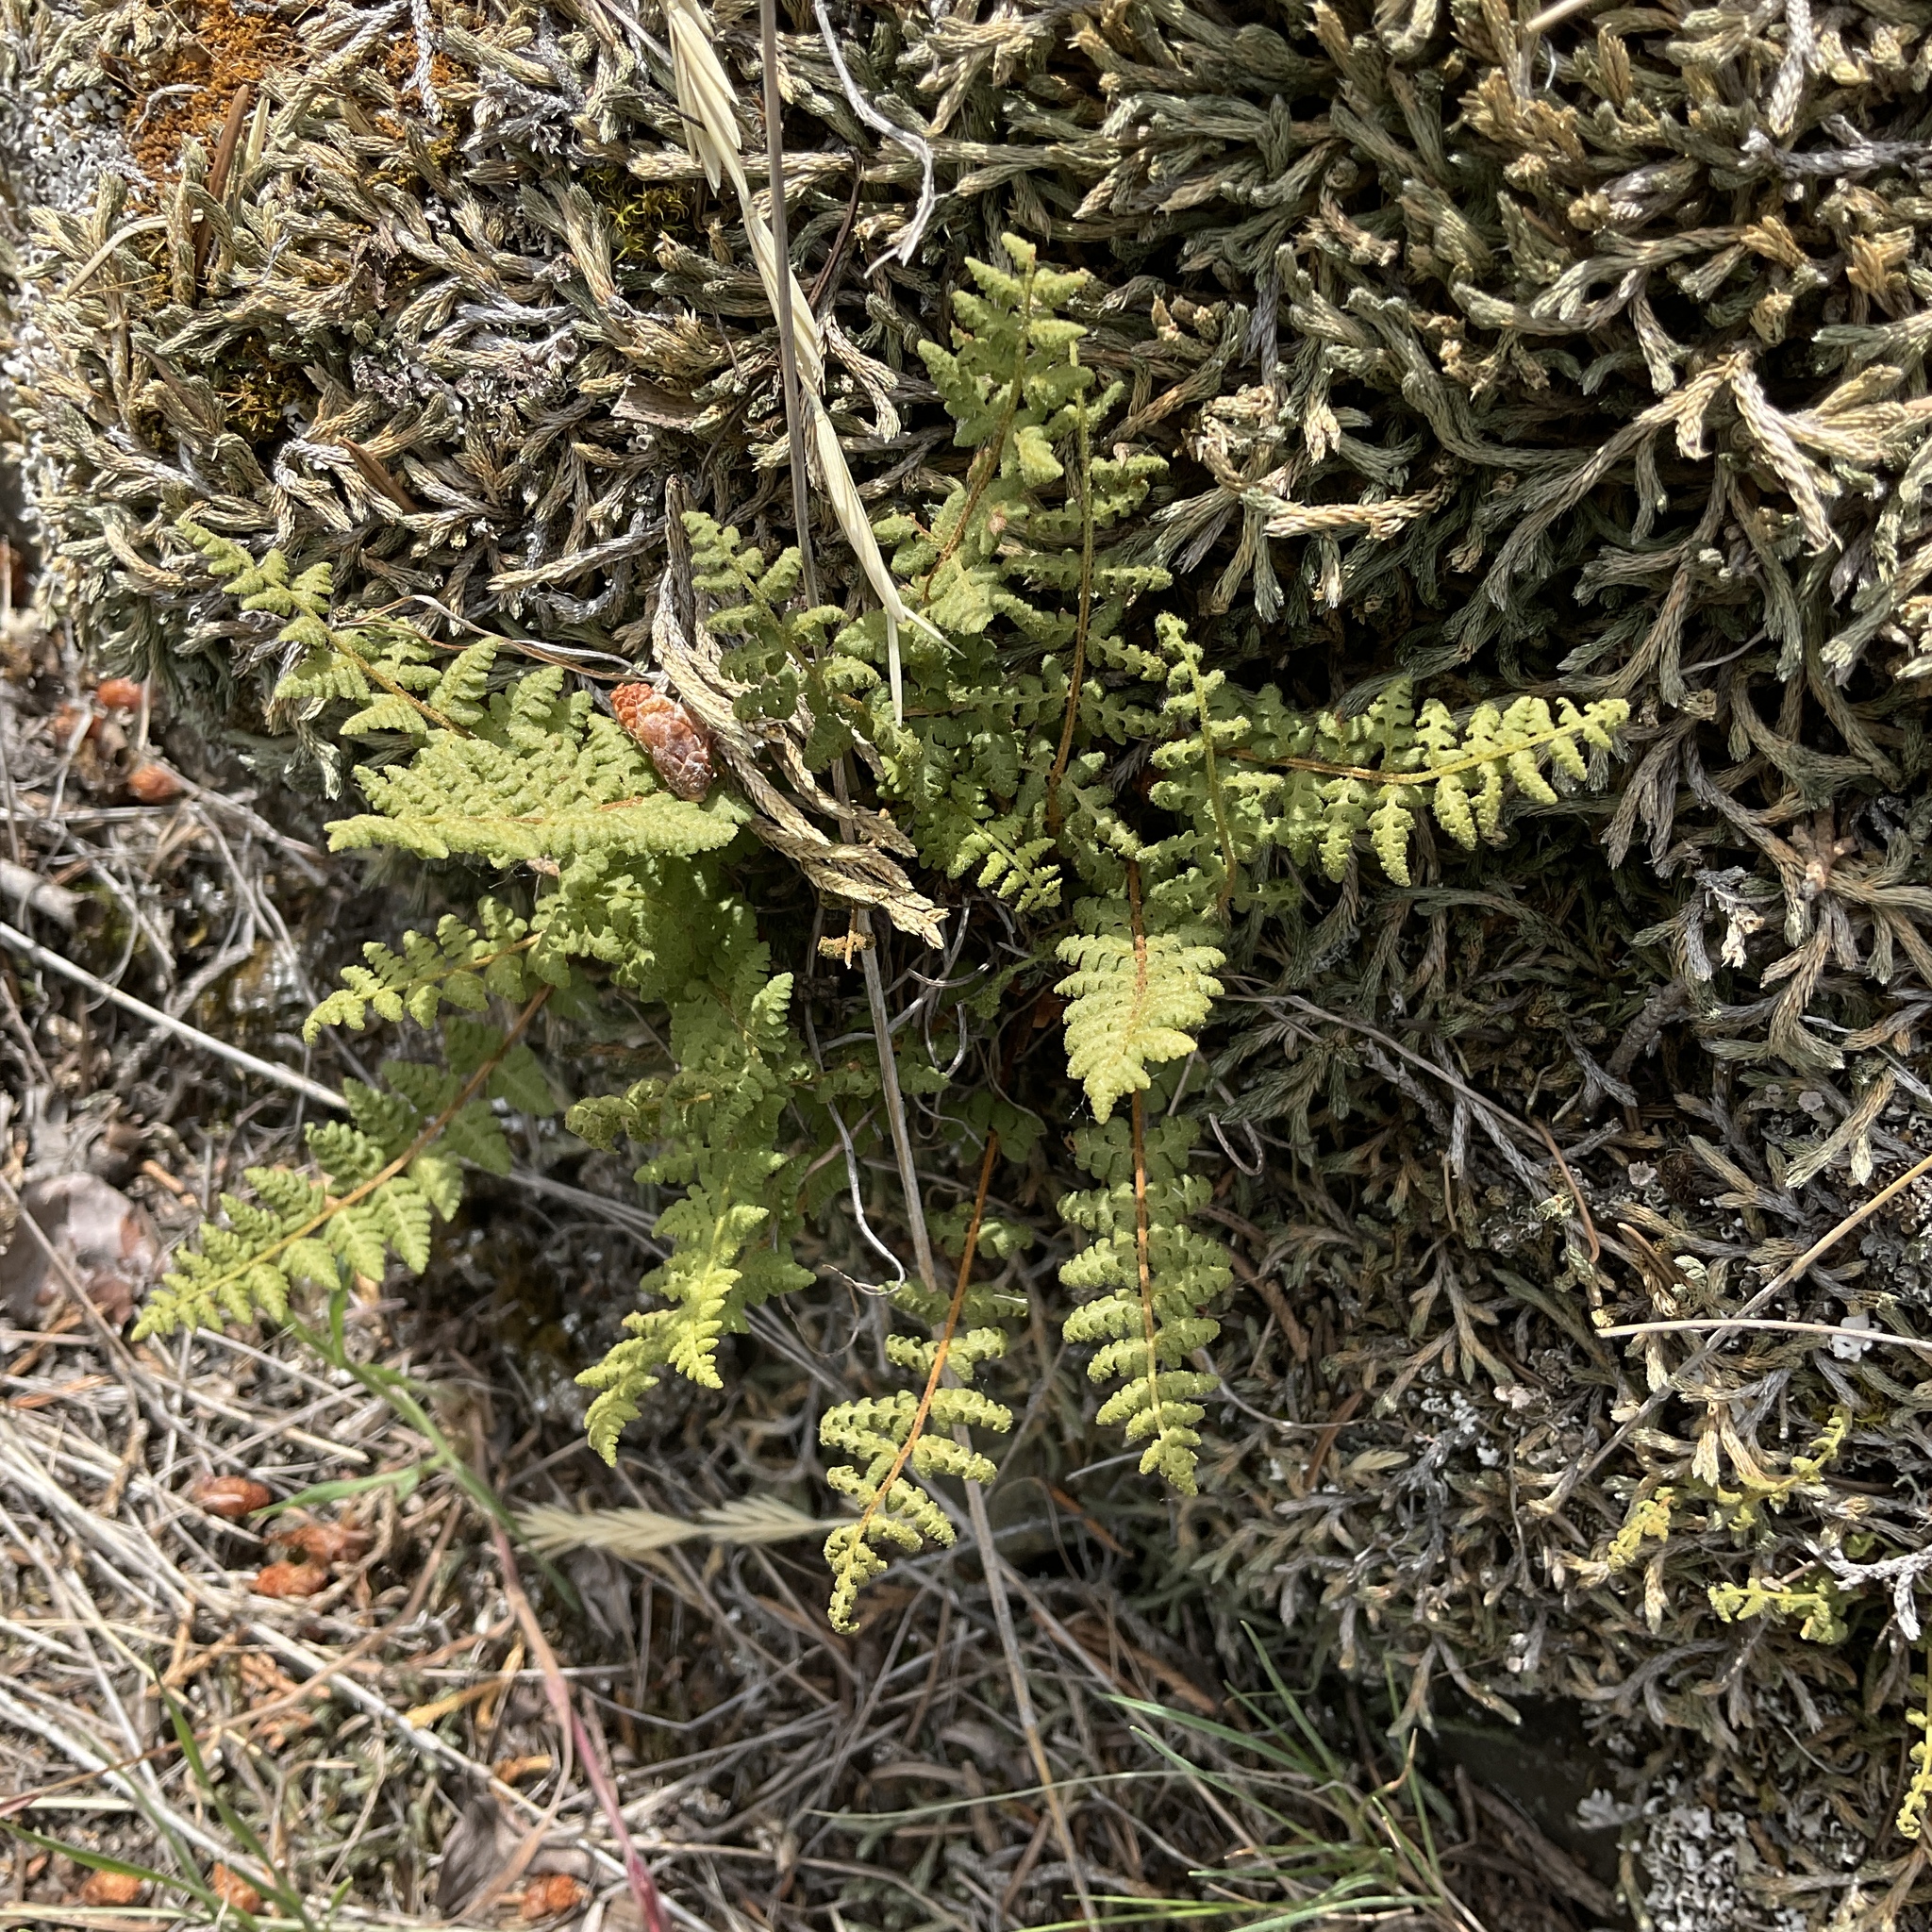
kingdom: Plantae
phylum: Tracheophyta
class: Polypodiopsida
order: Polypodiales
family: Woodsiaceae
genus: Physematium
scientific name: Physematium scopulinum
